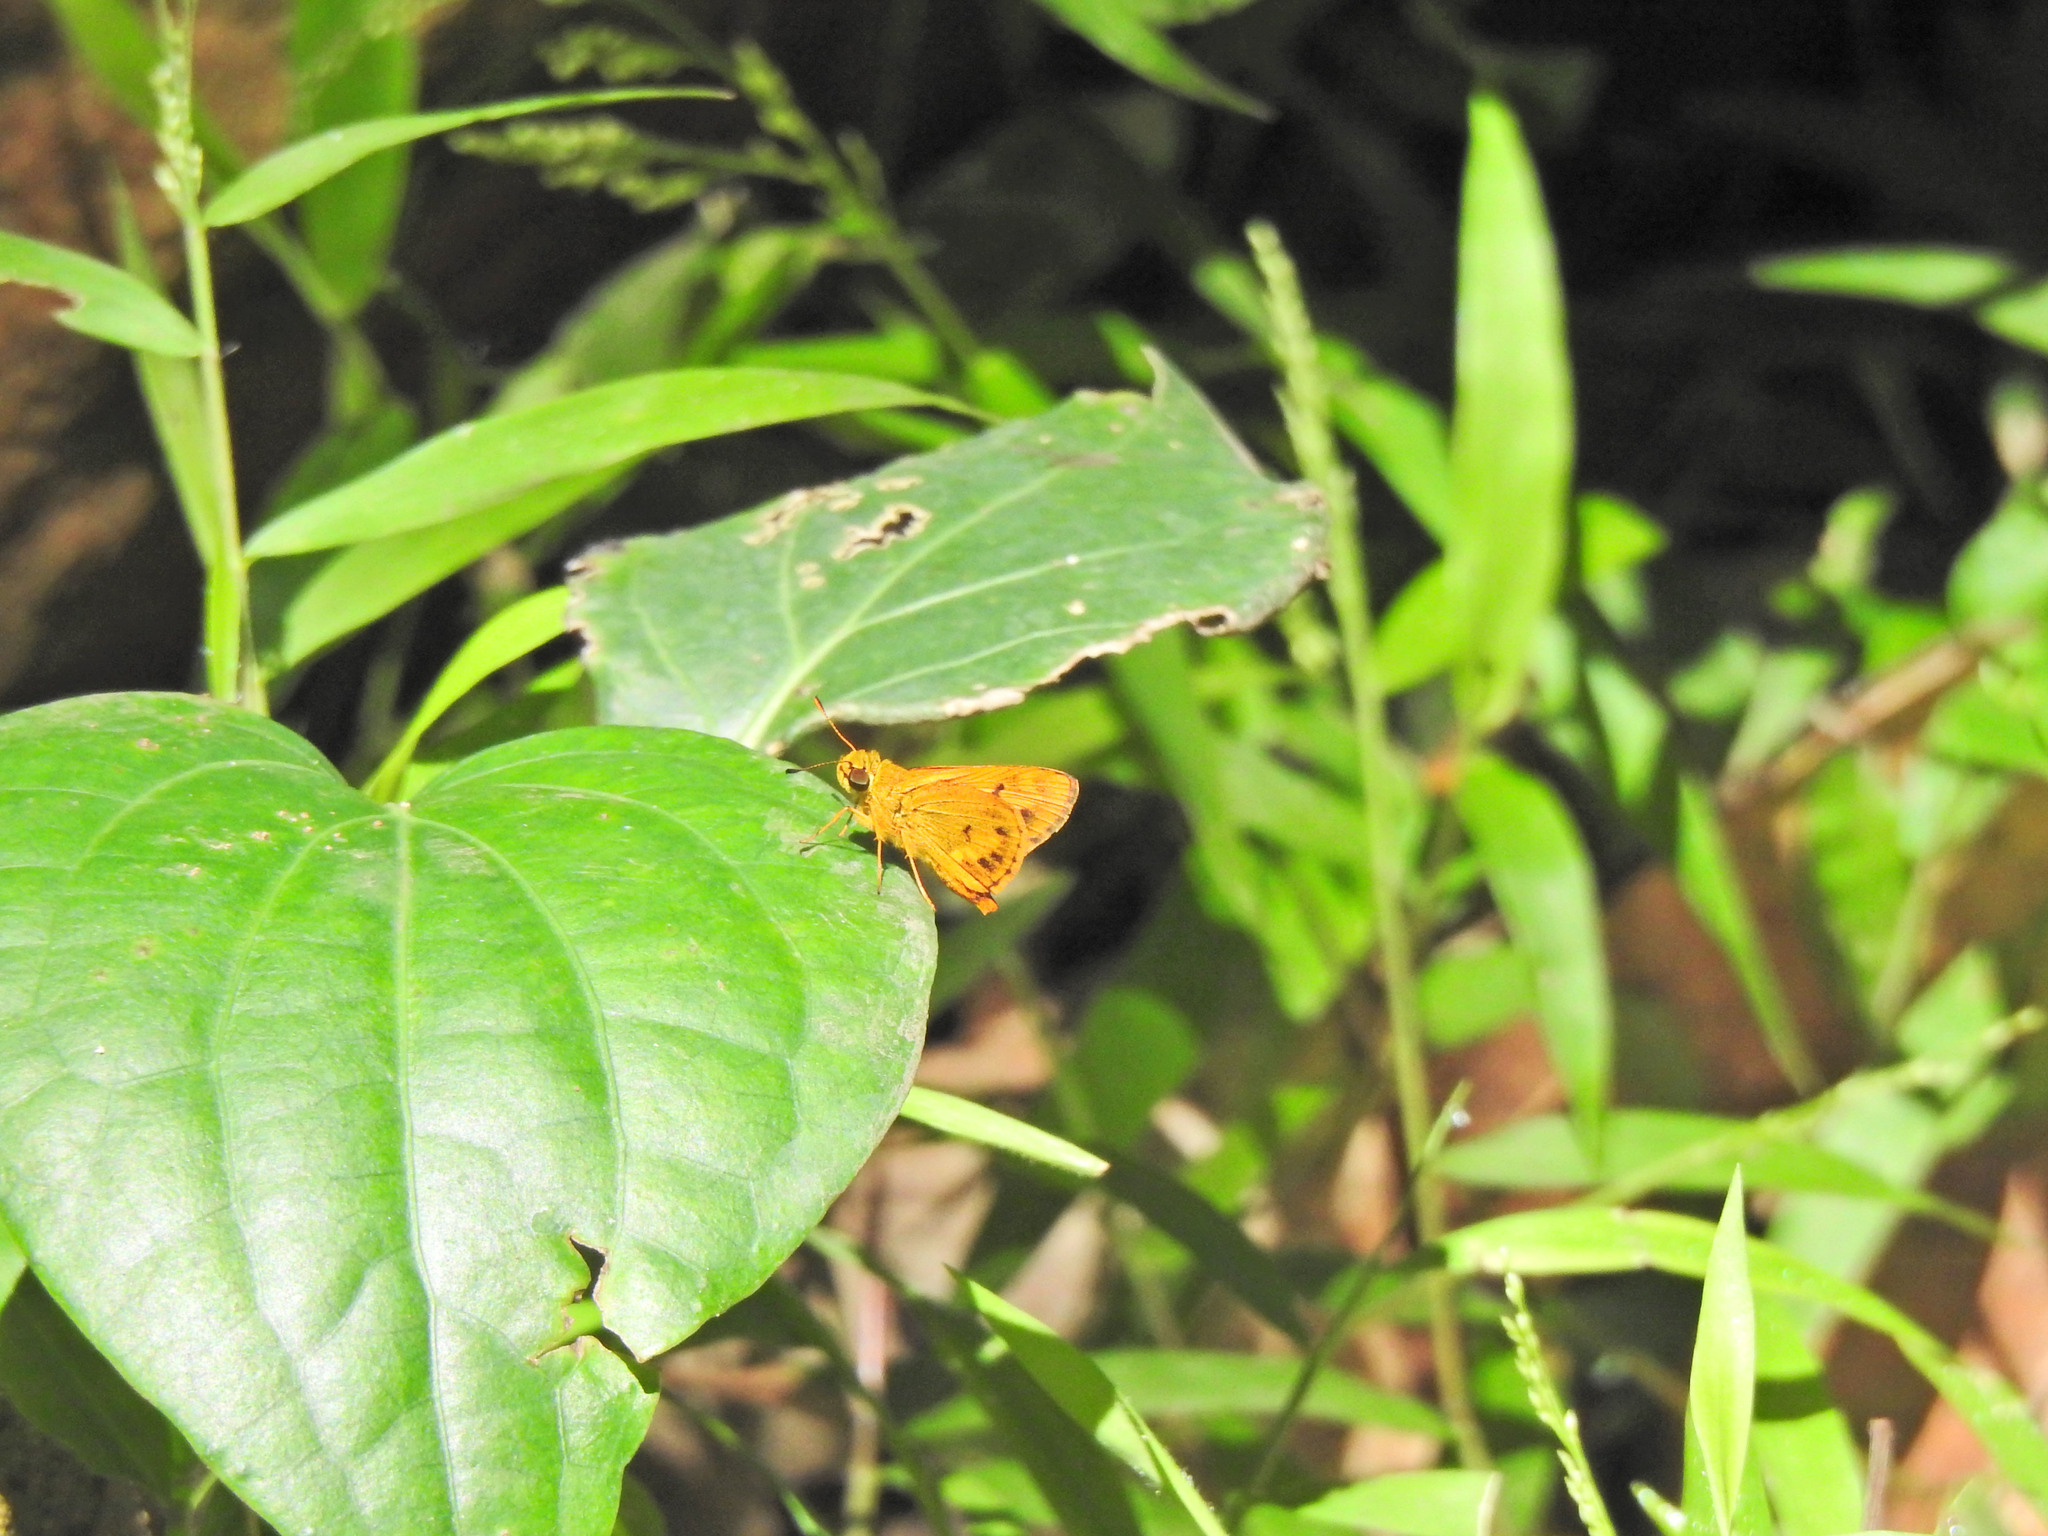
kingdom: Animalia
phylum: Arthropoda
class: Insecta
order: Lepidoptera
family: Hesperiidae
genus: Oriens
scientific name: Oriens goloides
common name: Smaller dartlet
